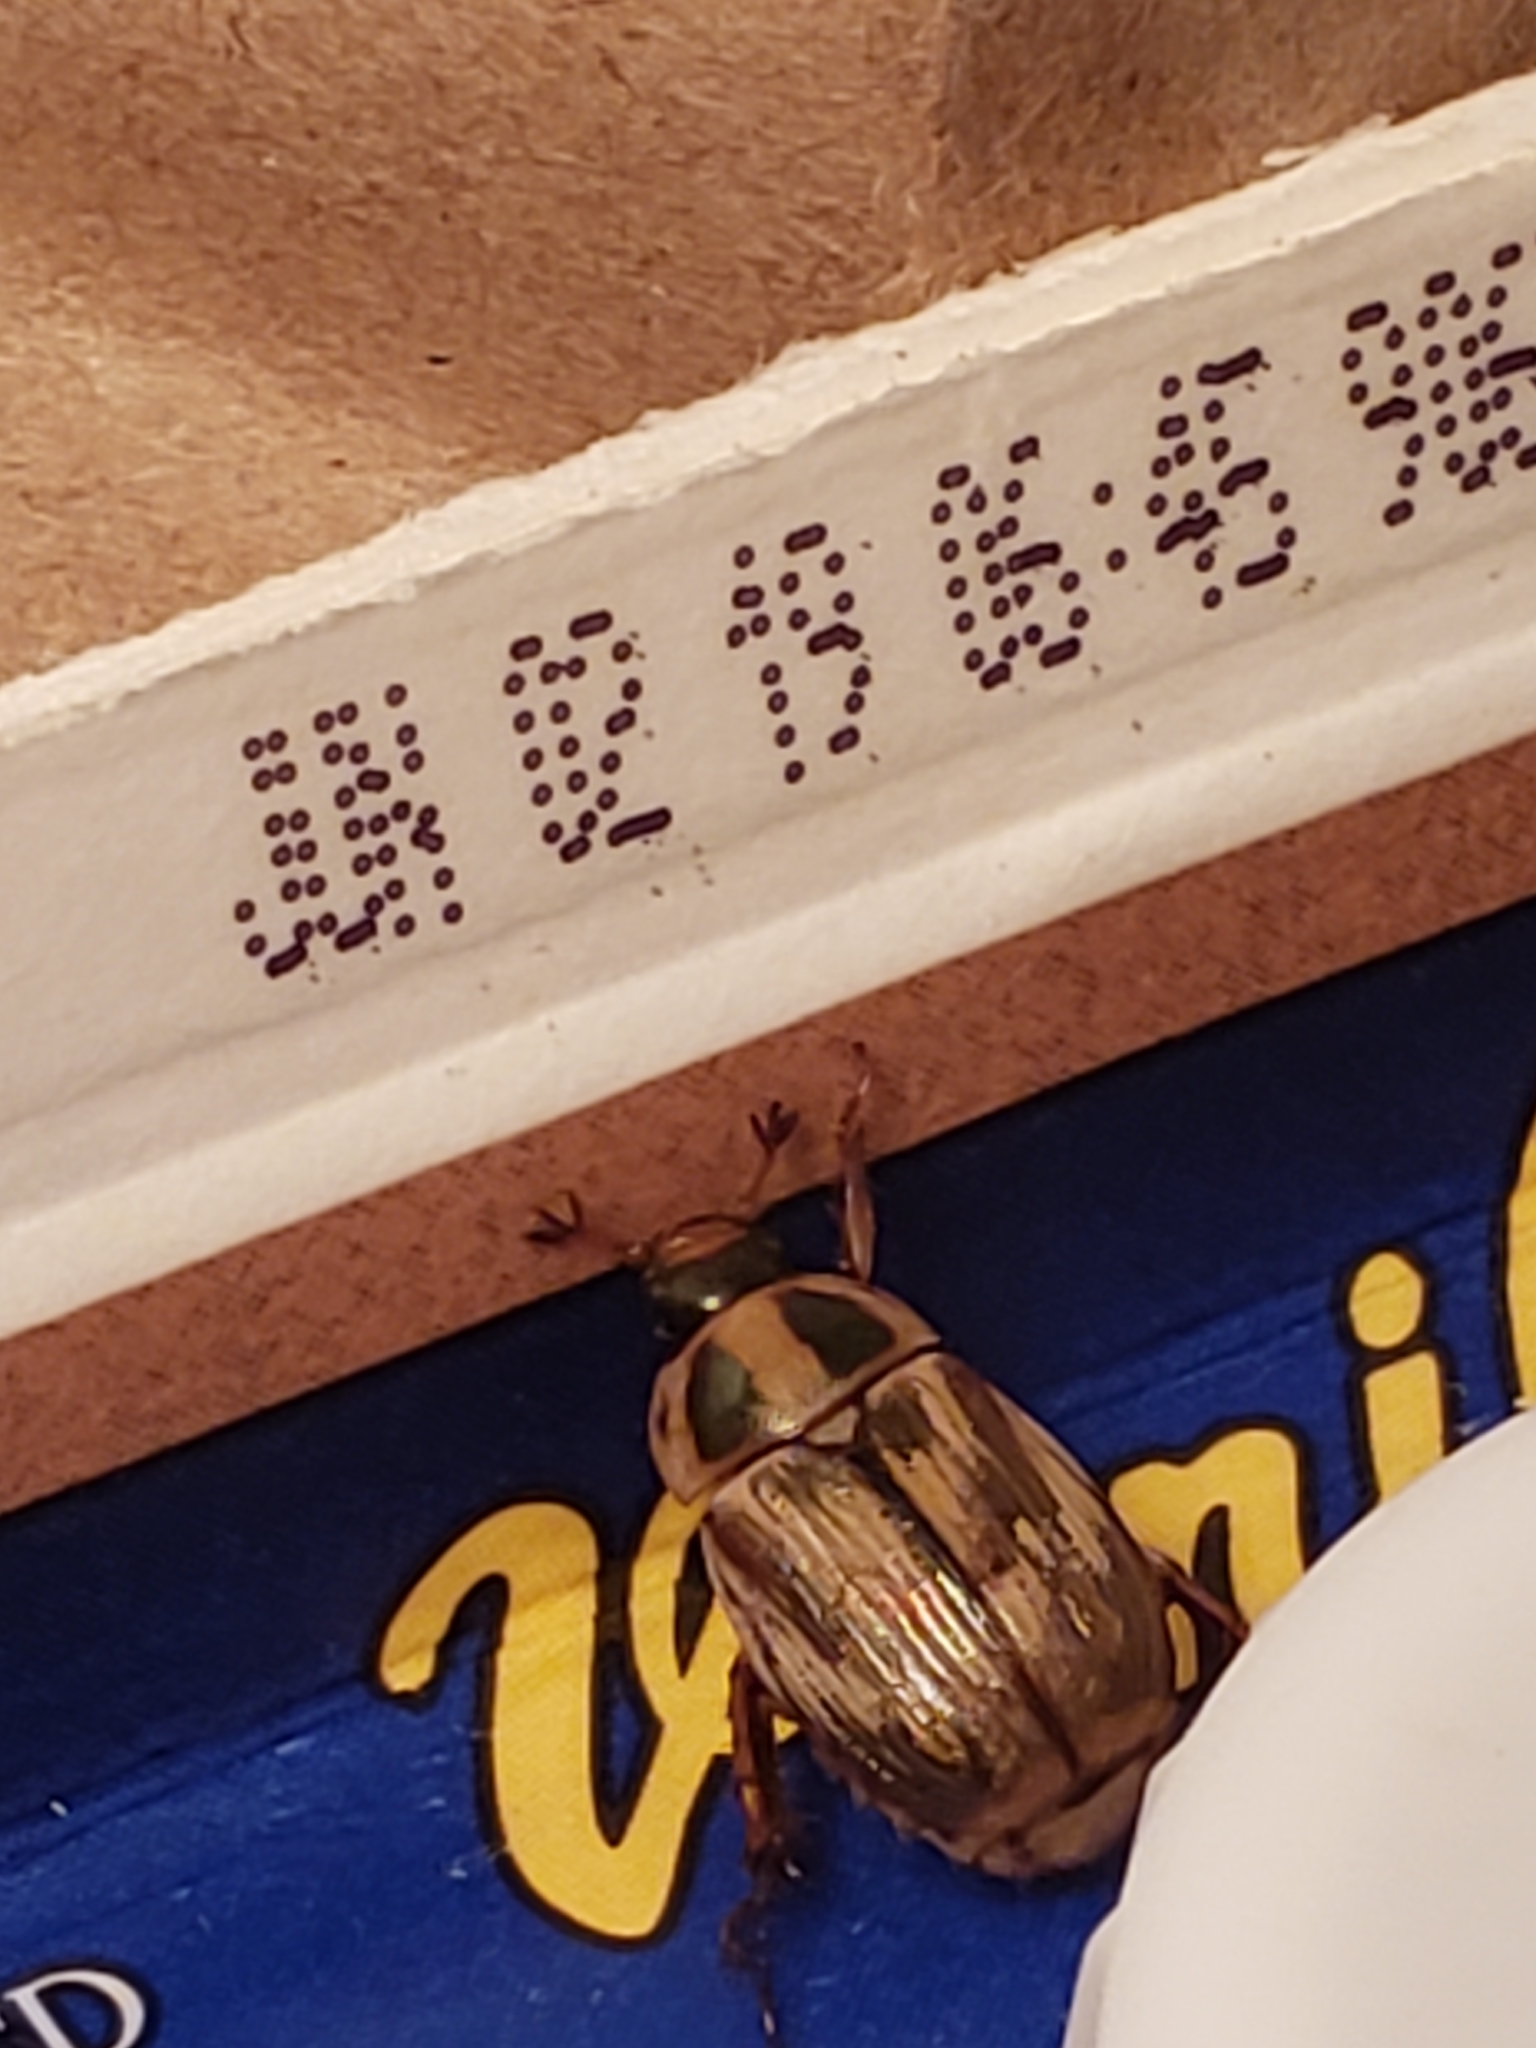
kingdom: Animalia
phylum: Arthropoda
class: Insecta
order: Coleoptera
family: Scarabaeidae
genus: Exomala
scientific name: Exomala orientalis
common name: Oriental beetle
